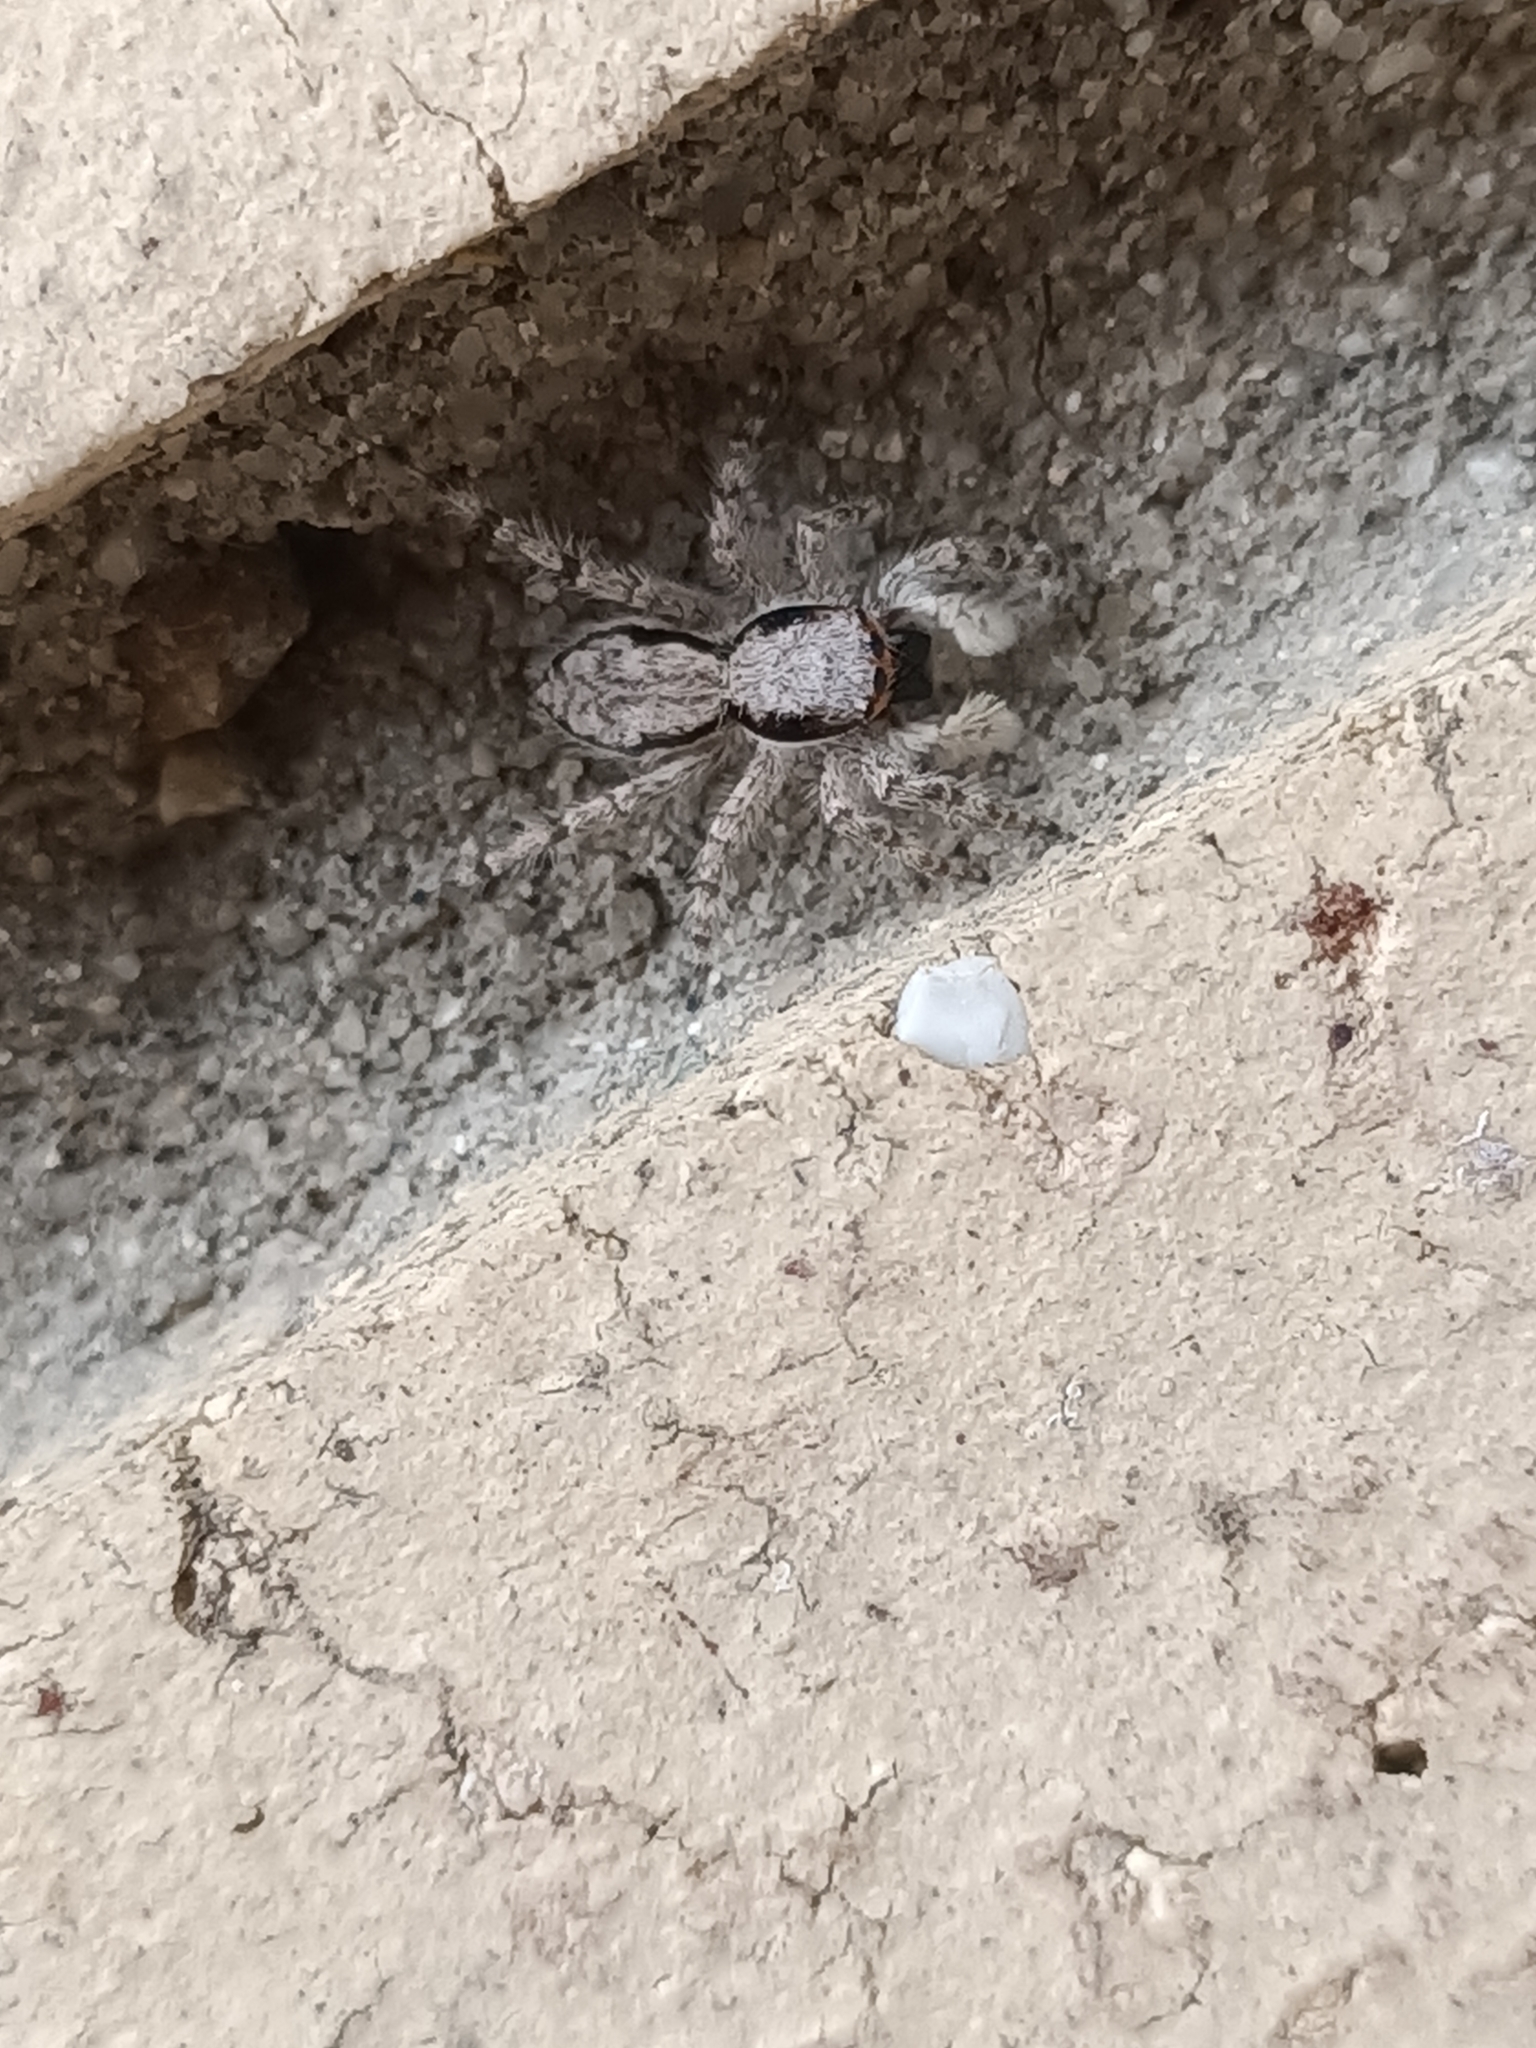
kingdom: Animalia
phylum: Arthropoda
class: Arachnida
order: Araneae
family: Salticidae
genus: Menemerus
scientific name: Menemerus bivittatus
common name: Gray wall jumper
